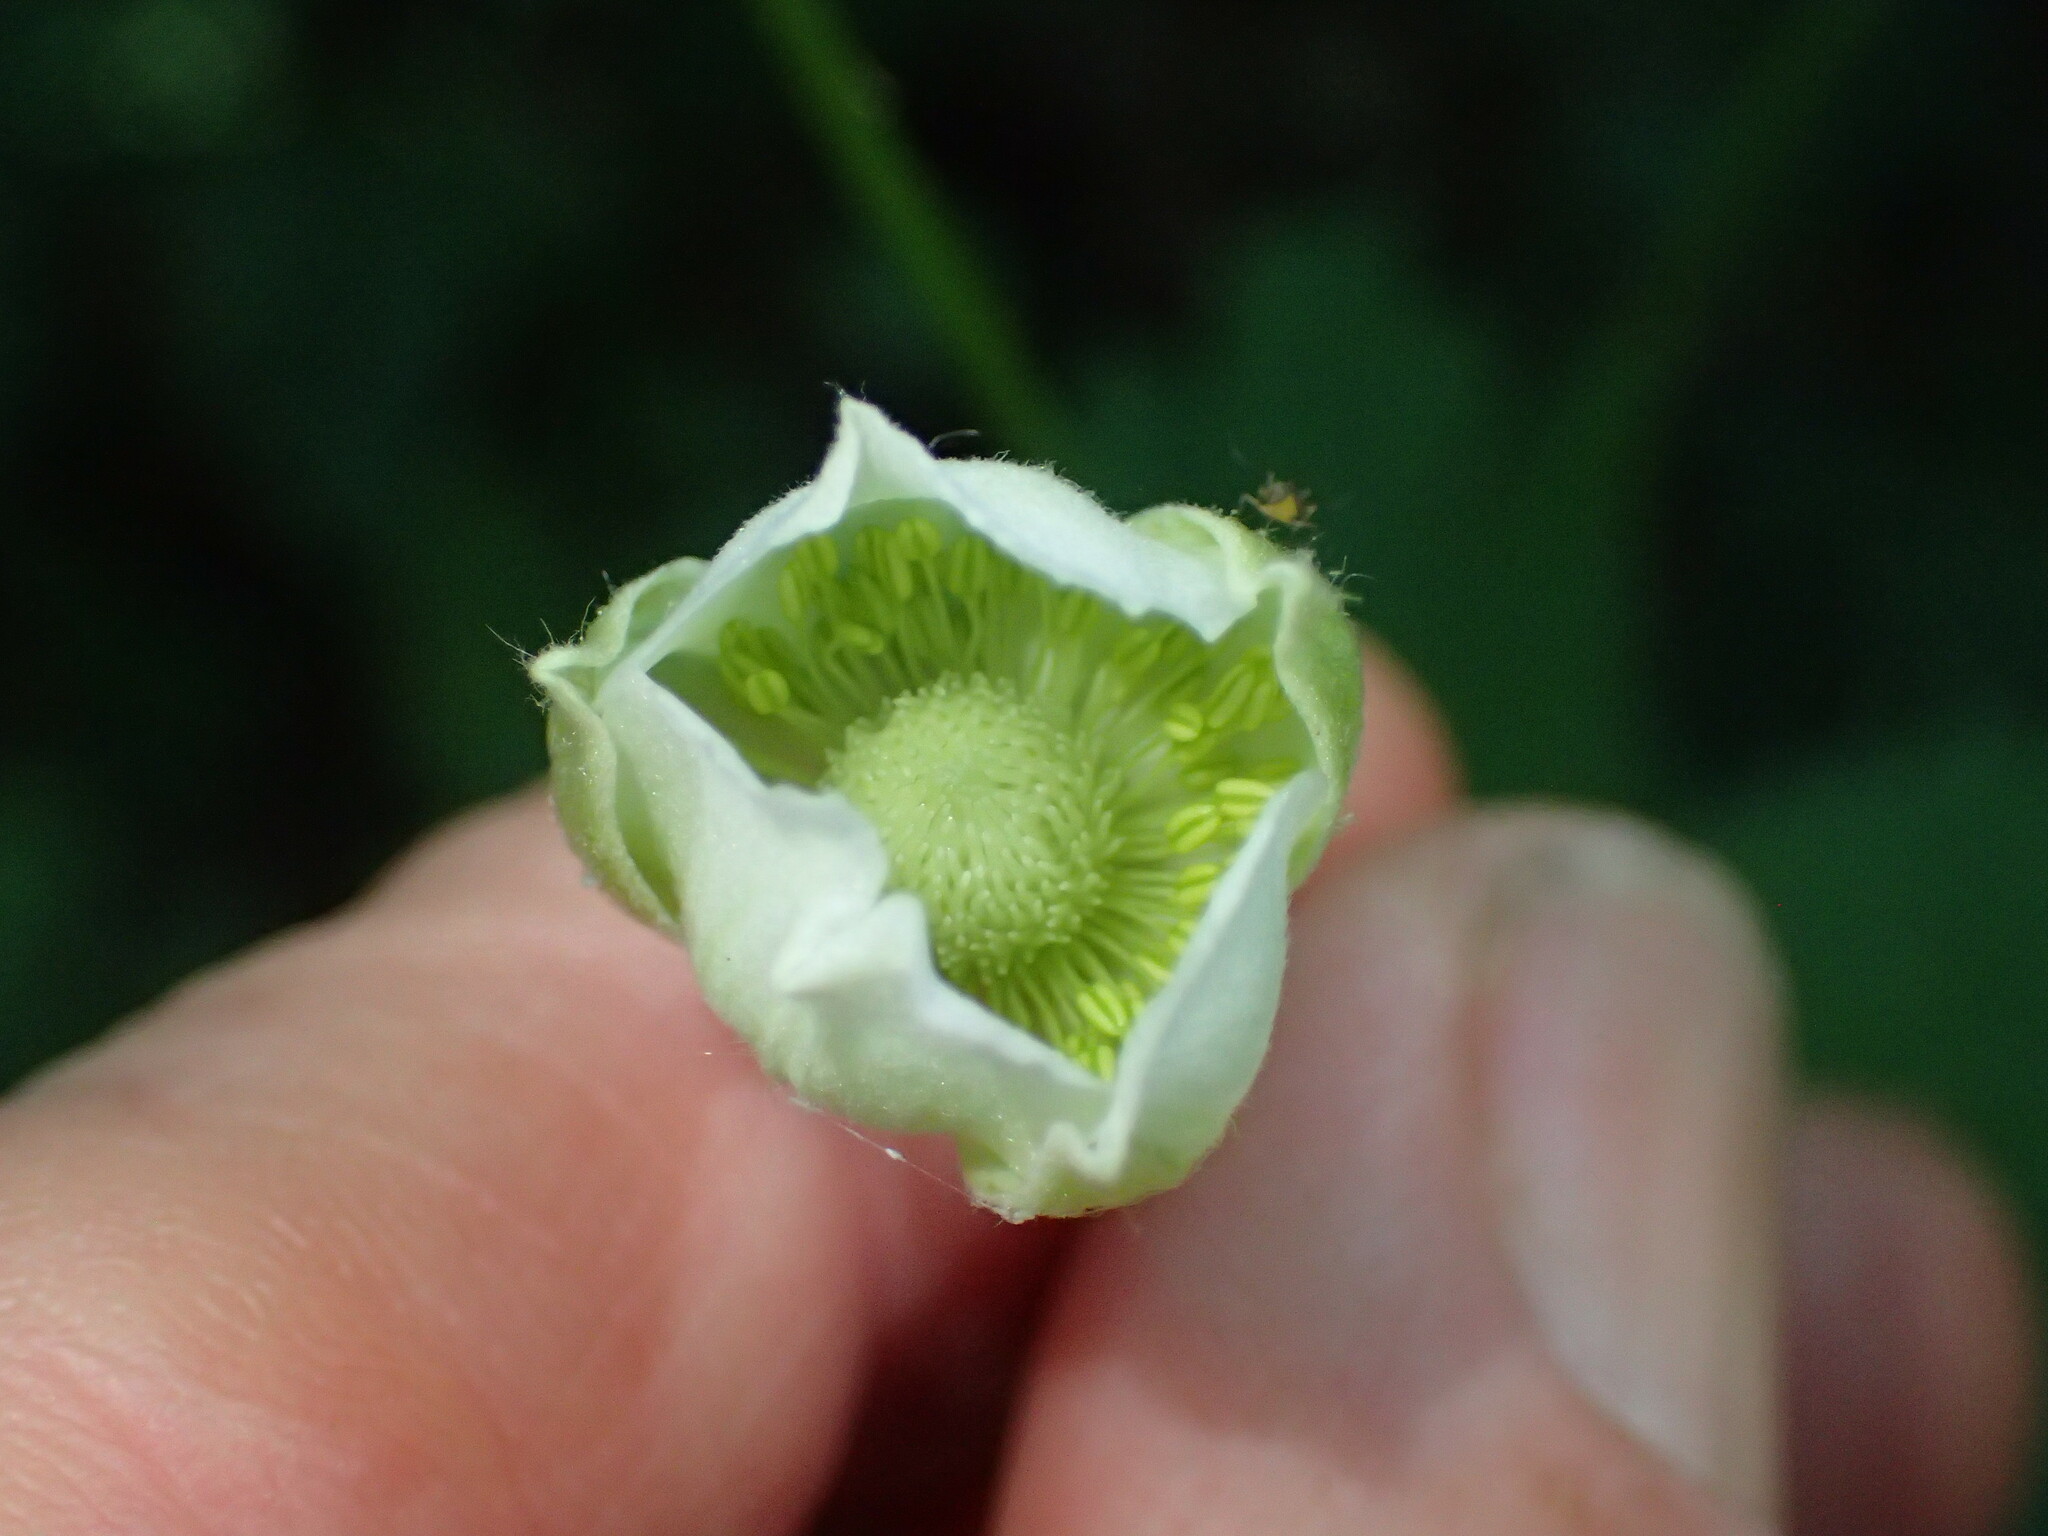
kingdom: Plantae
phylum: Tracheophyta
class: Magnoliopsida
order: Ranunculales
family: Ranunculaceae
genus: Anemone
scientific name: Anemone virginiana
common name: Tall anemone
